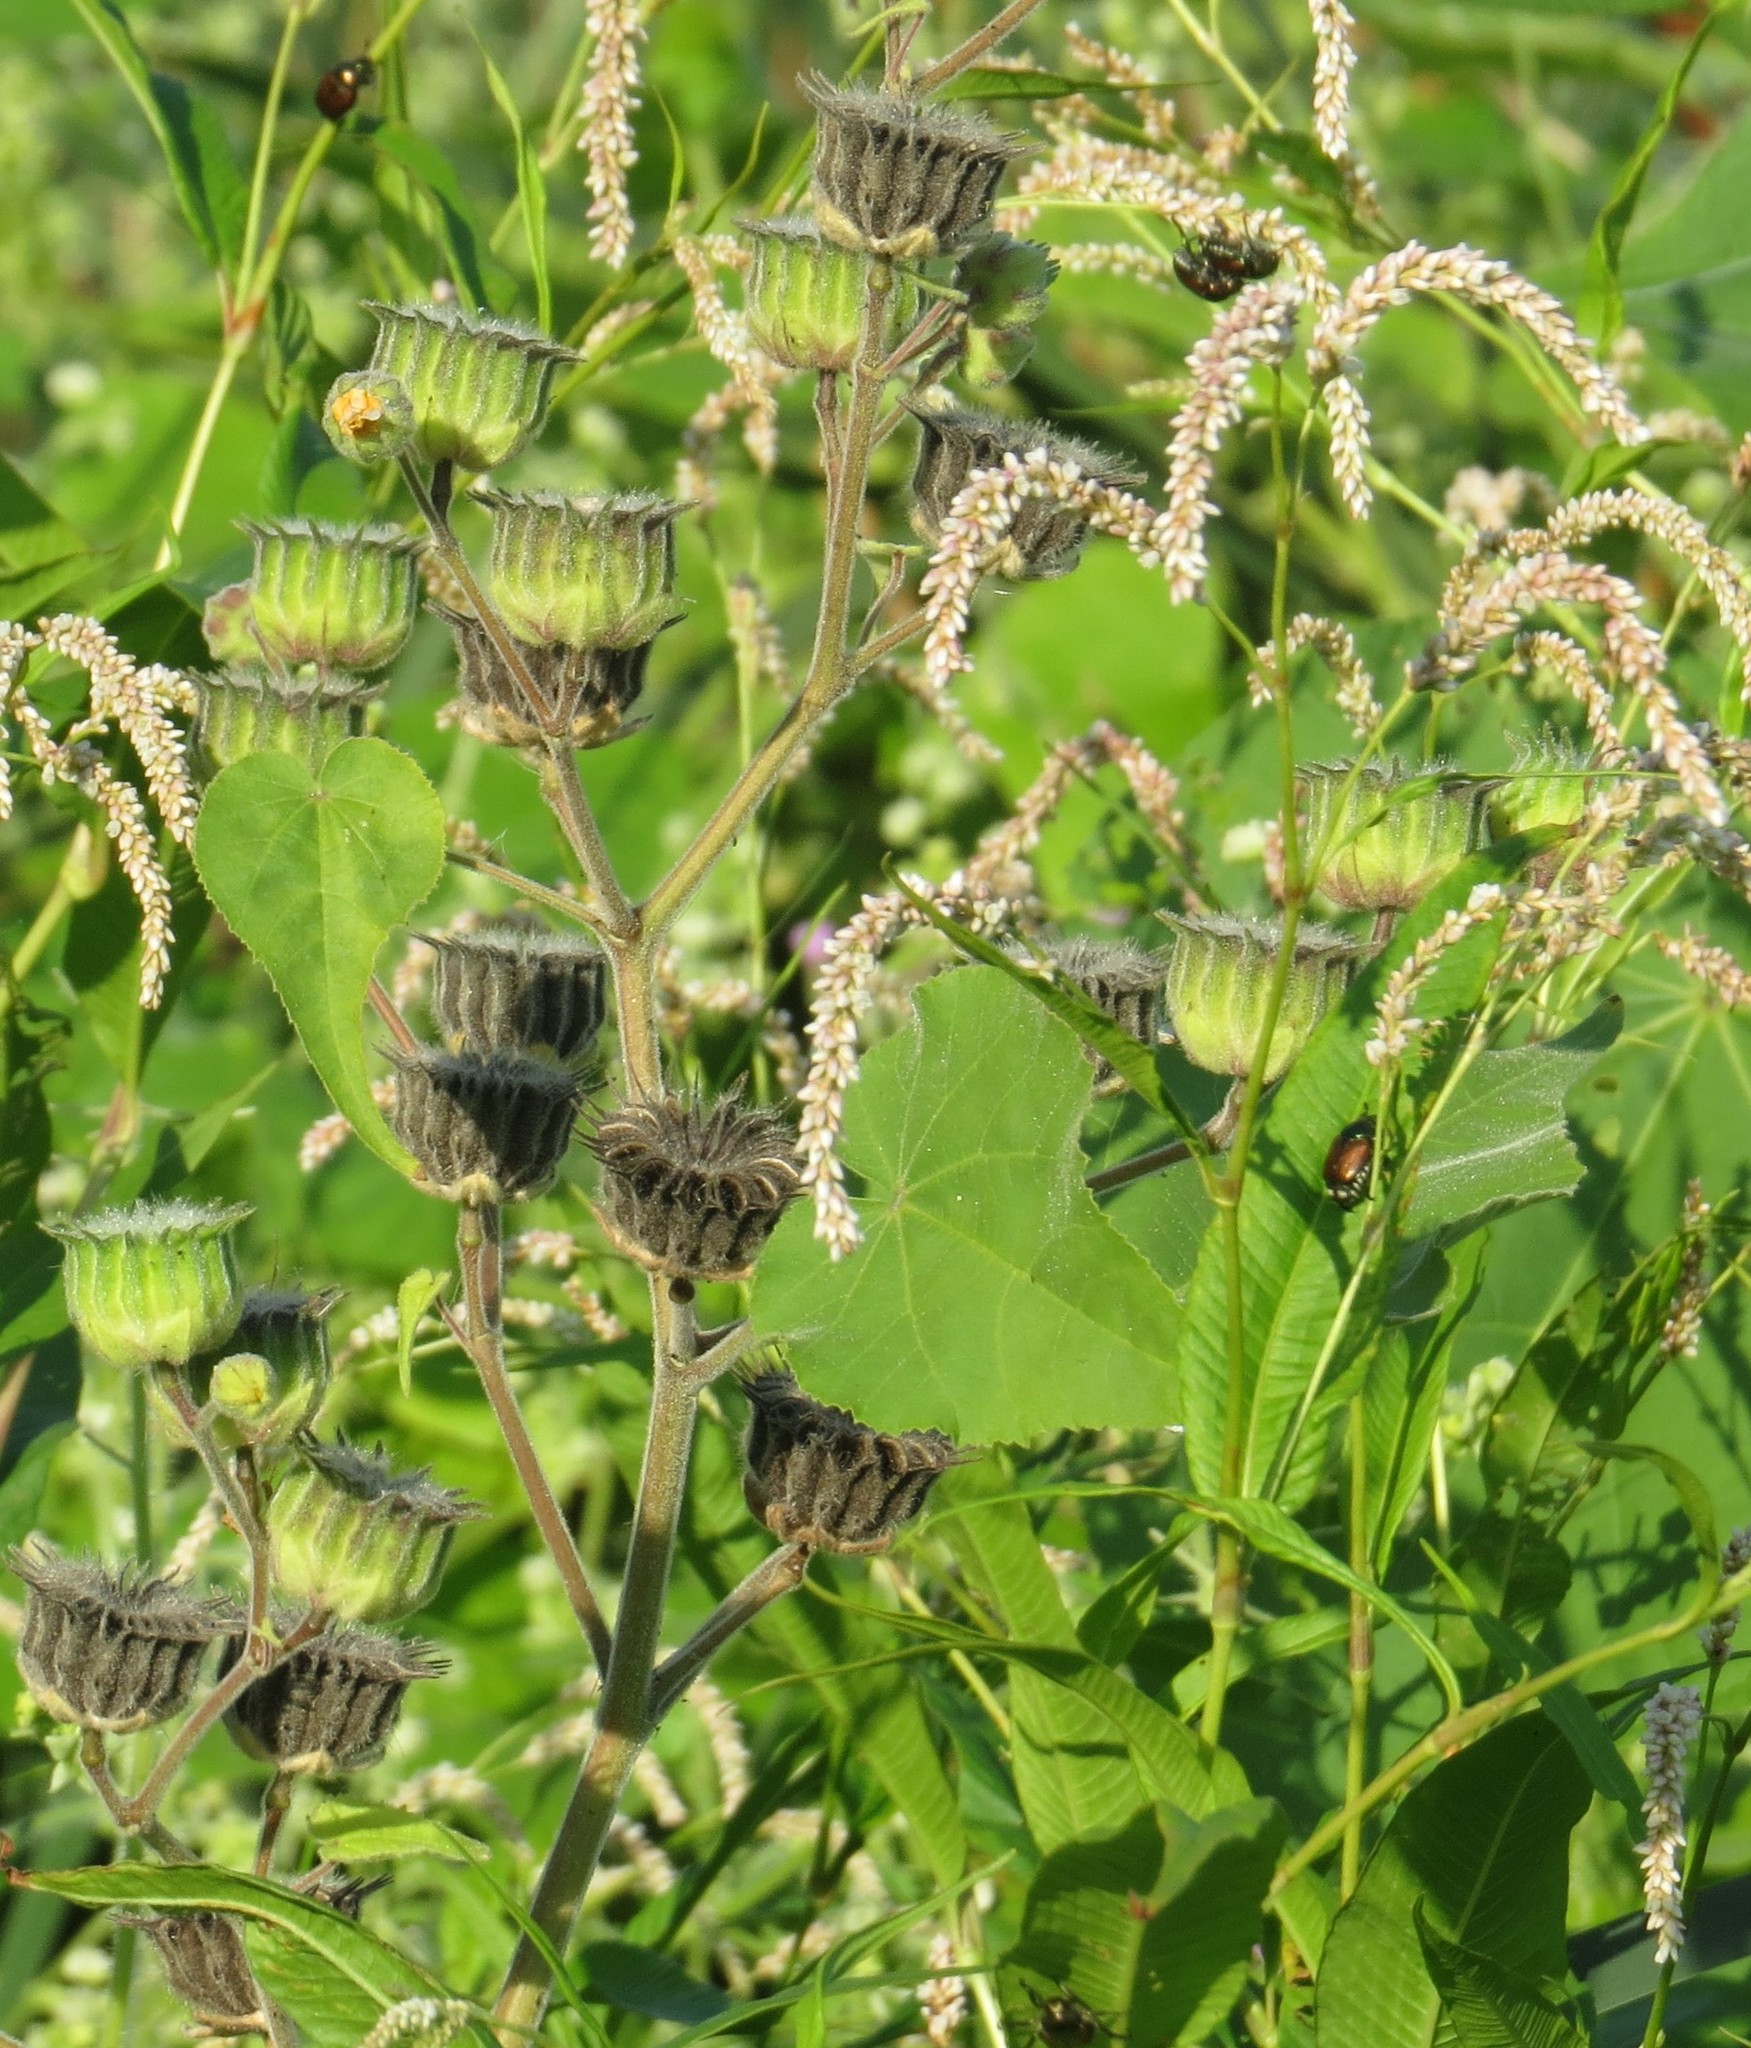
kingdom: Plantae
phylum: Tracheophyta
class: Magnoliopsida
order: Malvales
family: Malvaceae
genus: Abutilon
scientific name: Abutilon theophrasti
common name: Velvetleaf
